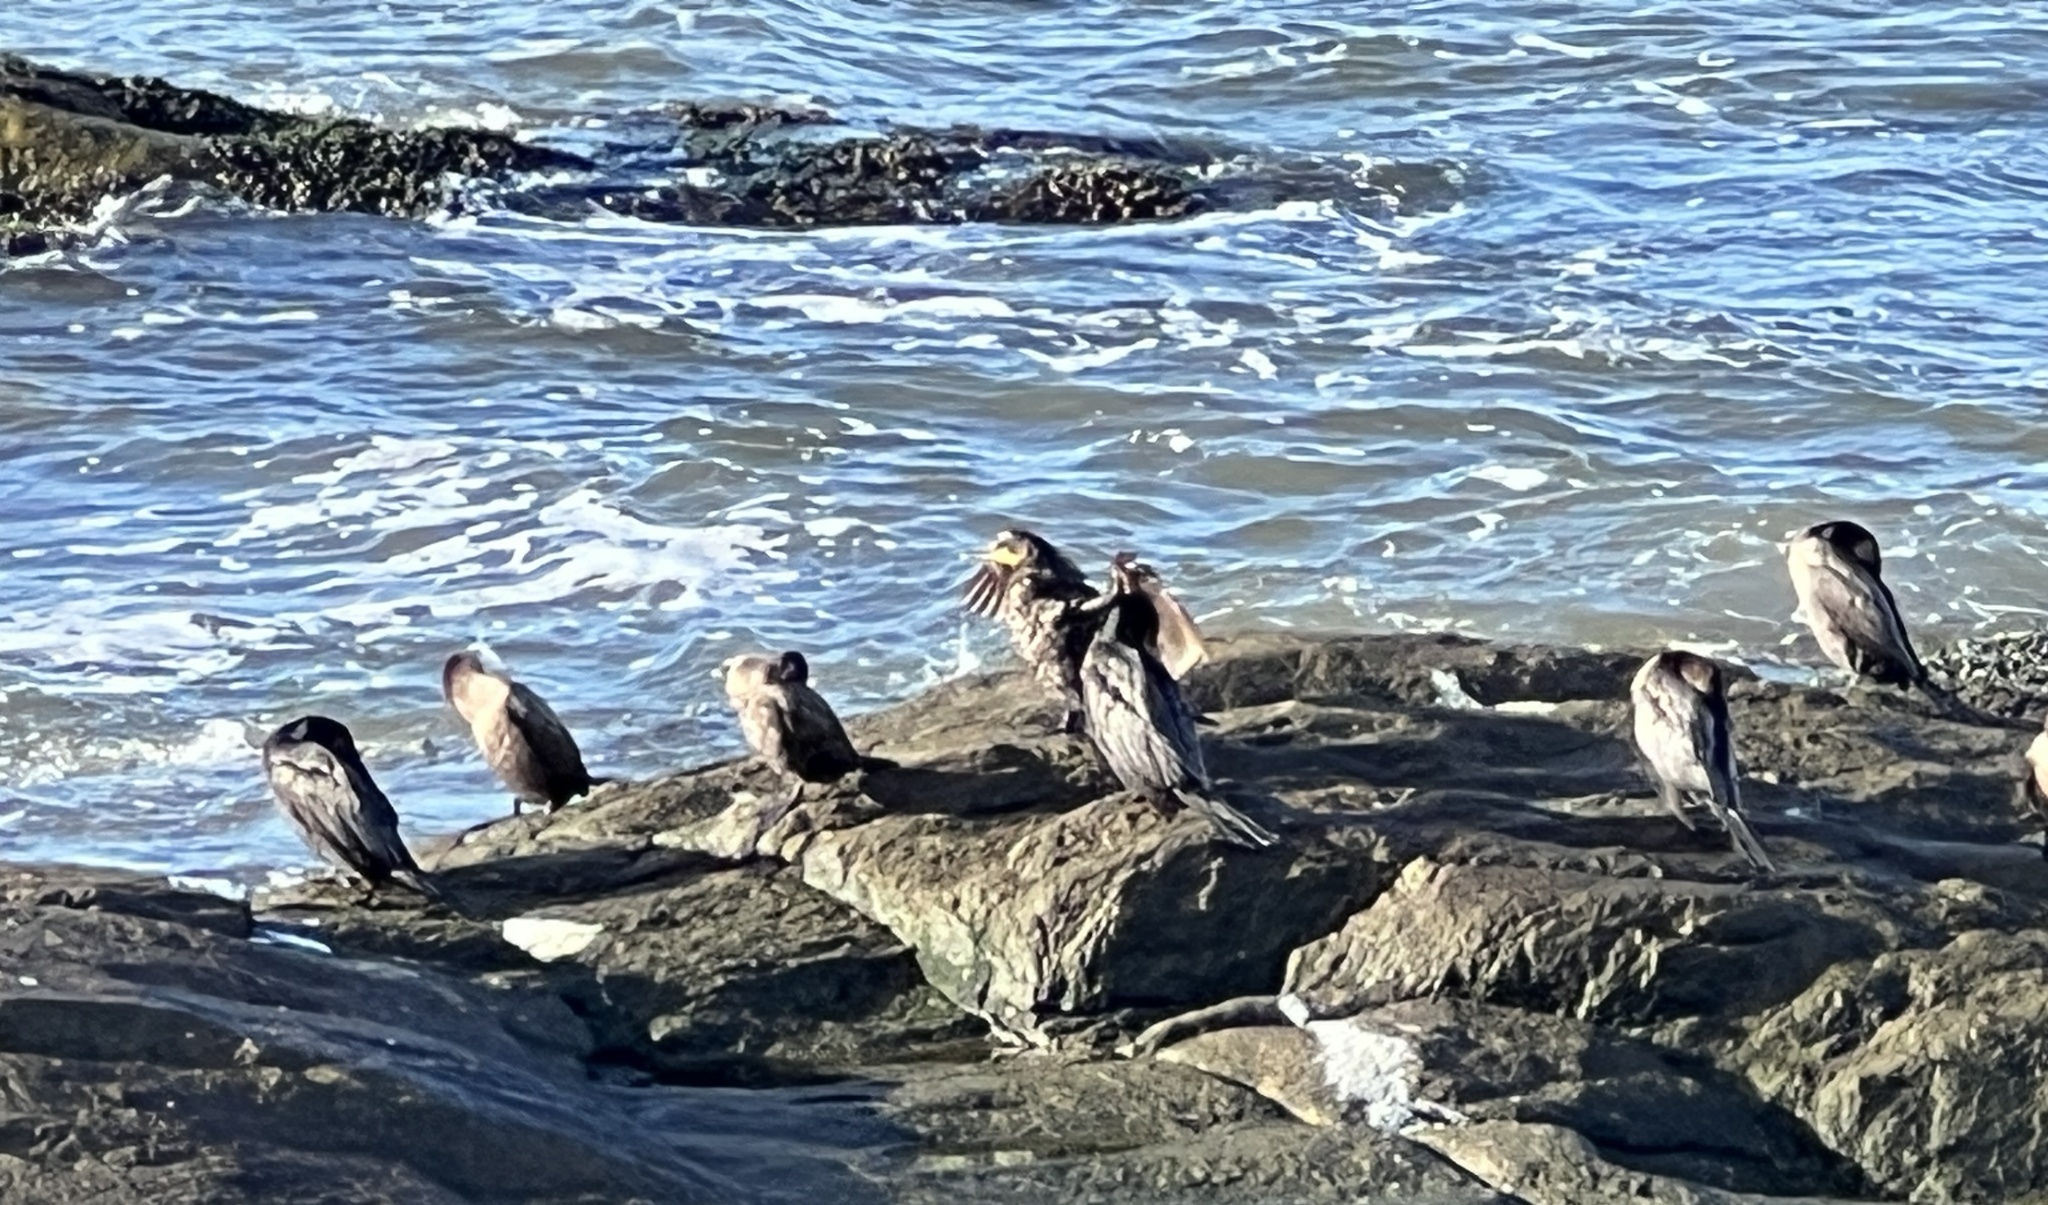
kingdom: Animalia
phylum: Chordata
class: Aves
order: Suliformes
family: Phalacrocoracidae
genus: Phalacrocorax
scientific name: Phalacrocorax brasilianus
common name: Neotropic cormorant
